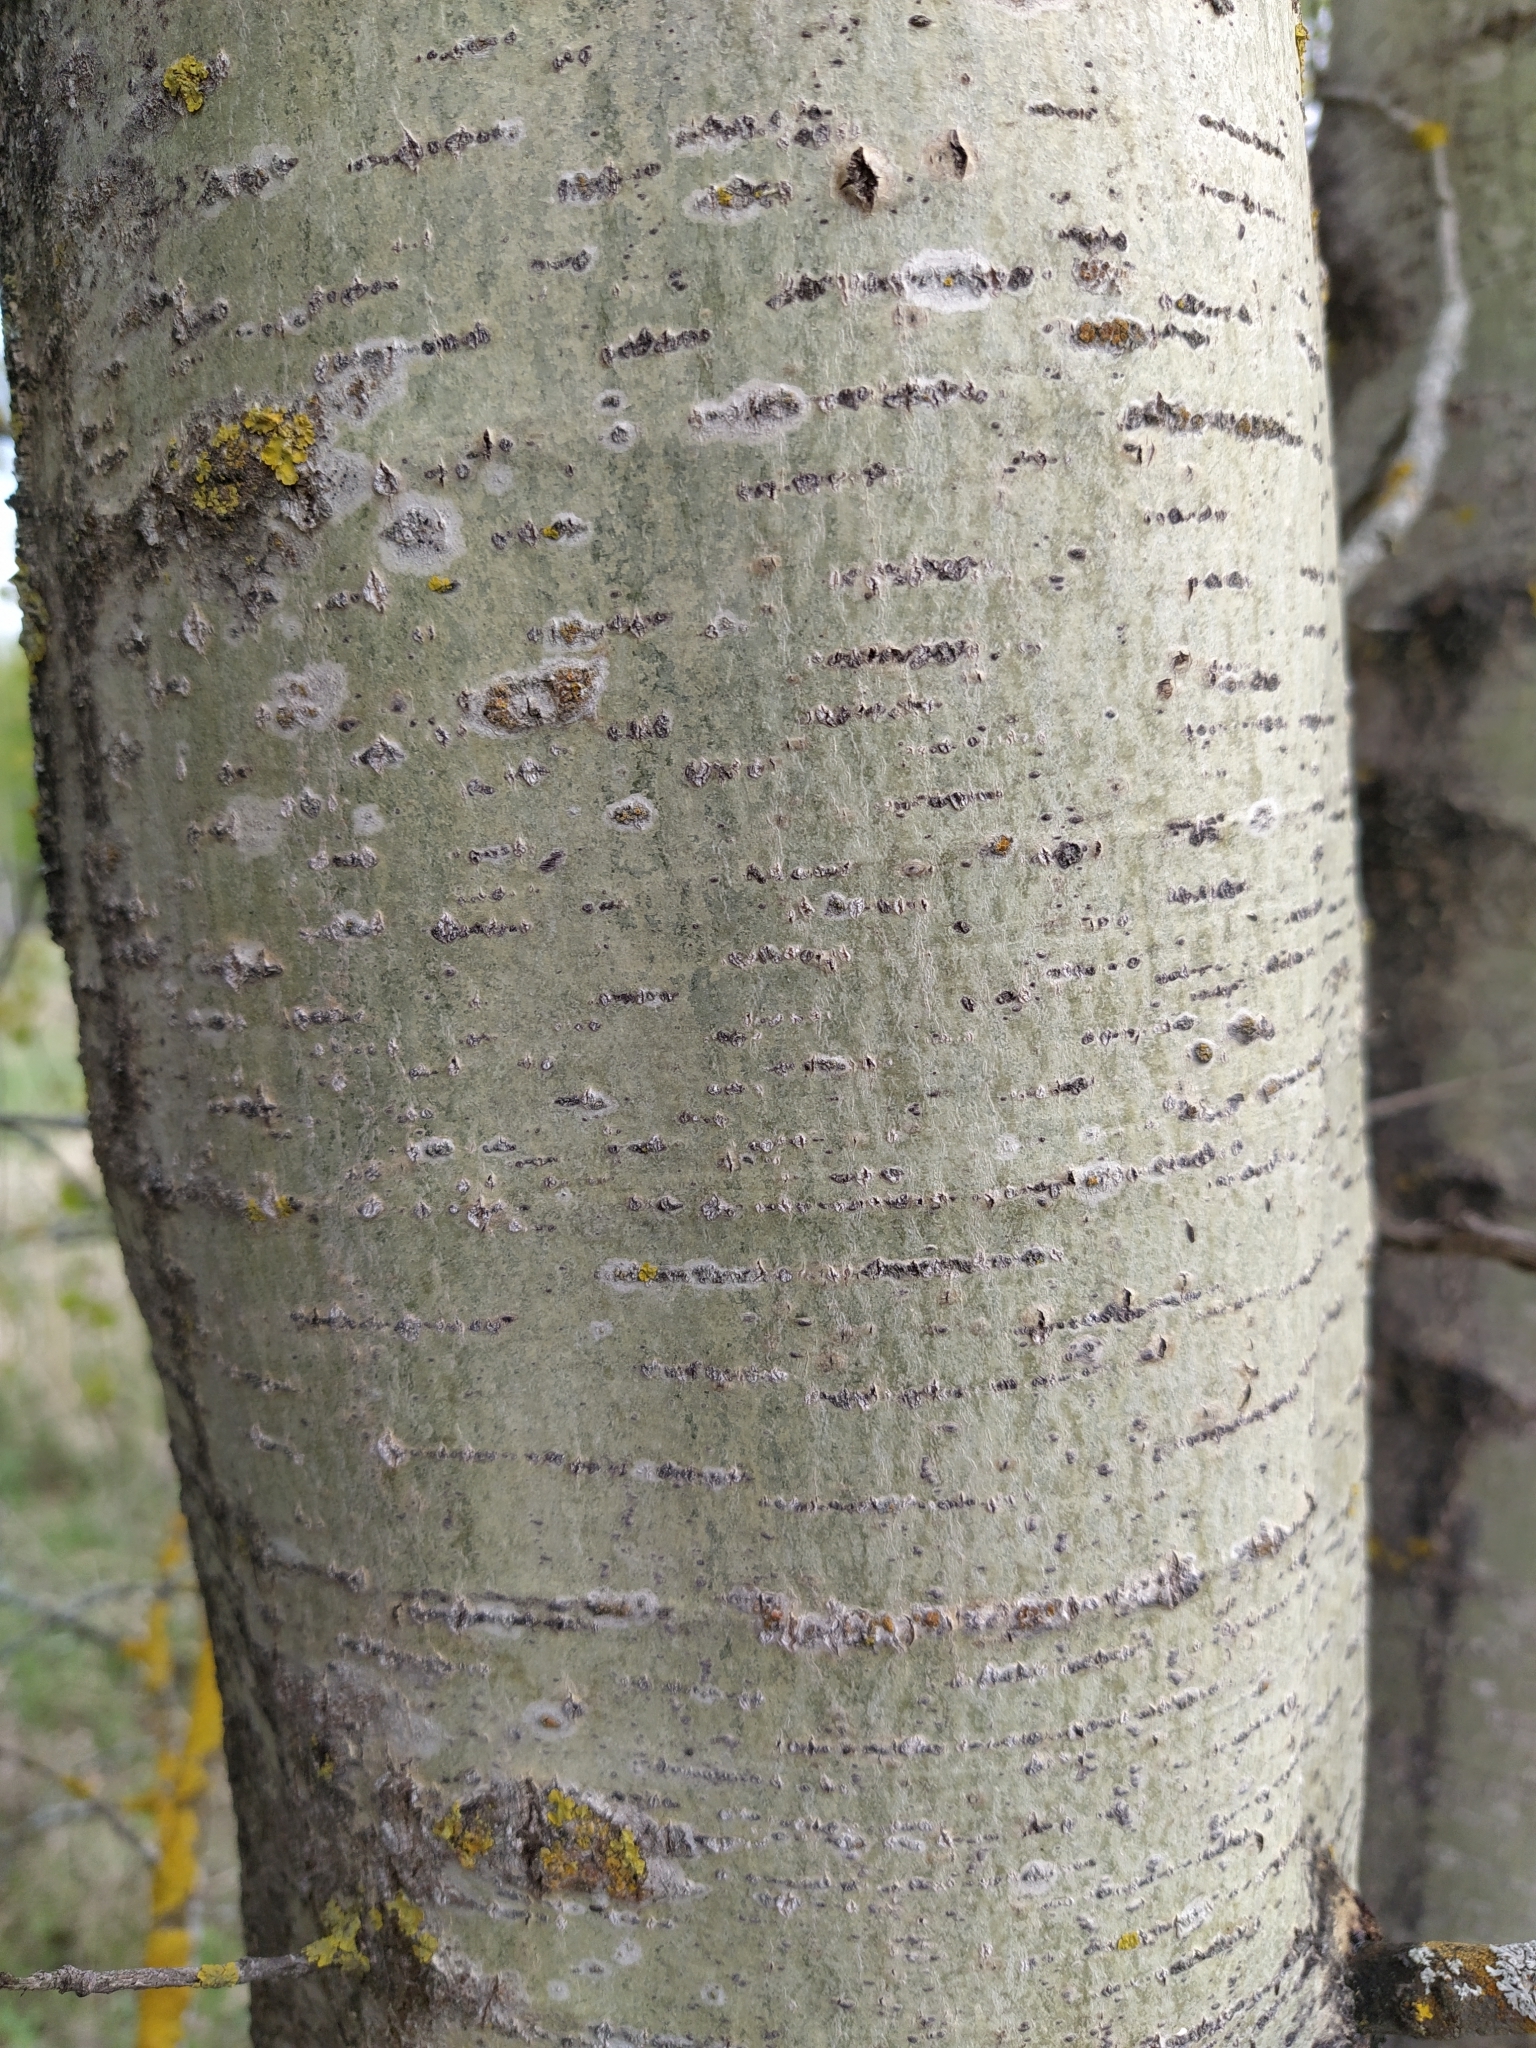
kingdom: Plantae
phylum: Tracheophyta
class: Magnoliopsida
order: Malpighiales
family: Salicaceae
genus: Populus
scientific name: Populus tremula
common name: European aspen
